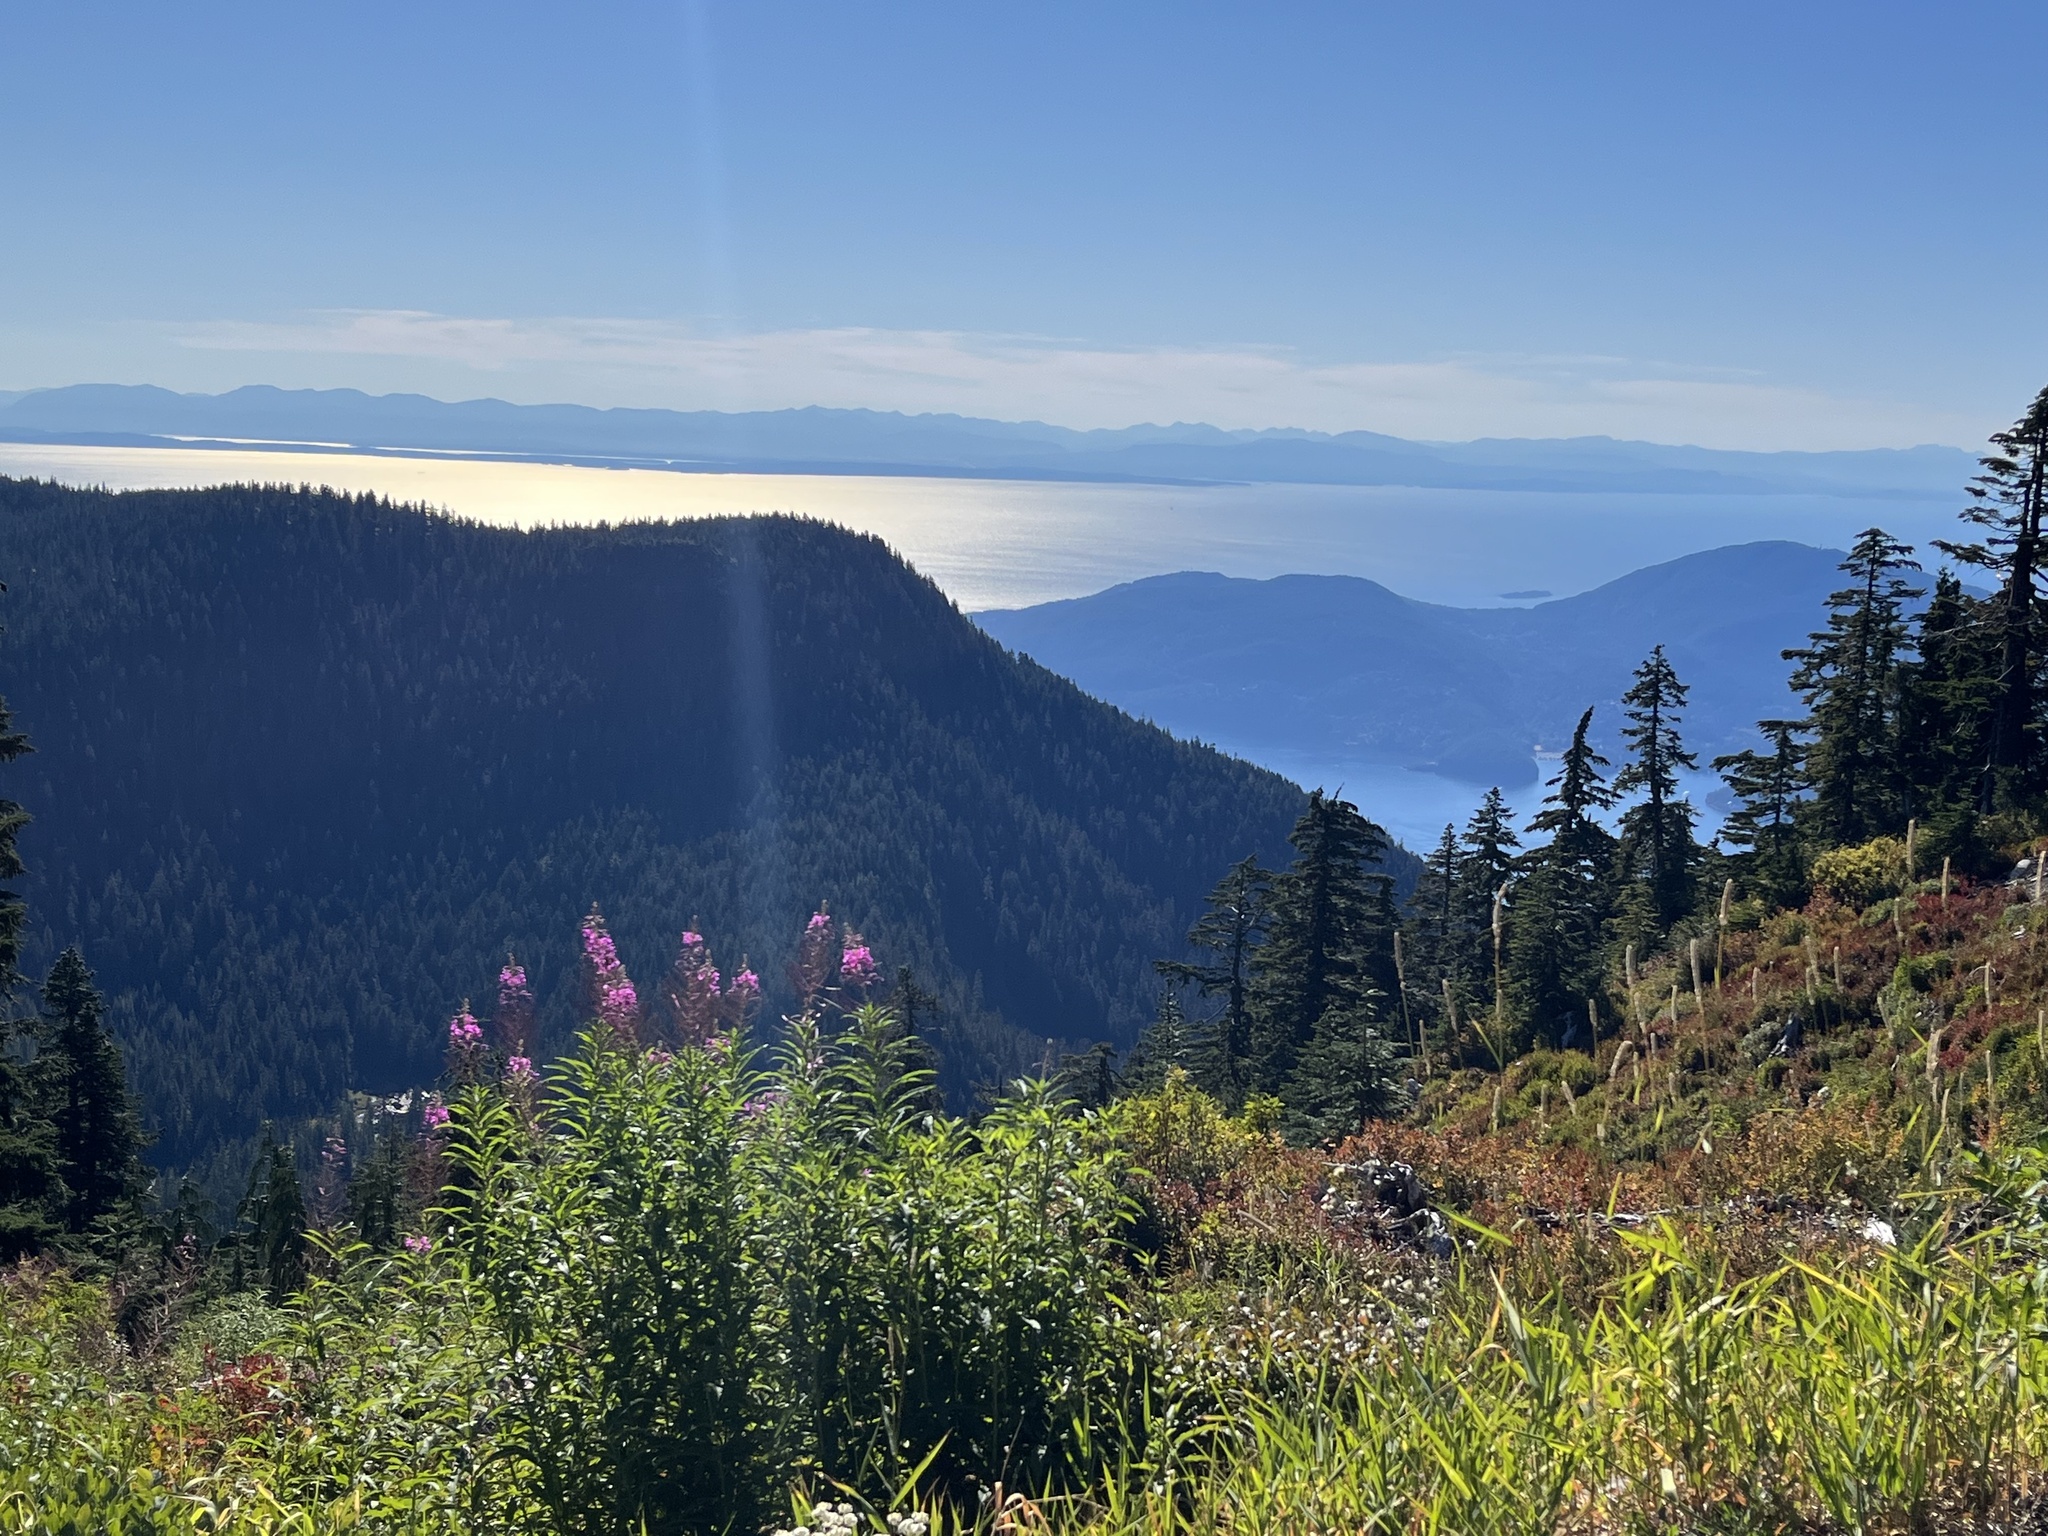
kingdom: Plantae
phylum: Tracheophyta
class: Magnoliopsida
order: Myrtales
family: Onagraceae
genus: Chamaenerion
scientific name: Chamaenerion angustifolium
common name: Fireweed
